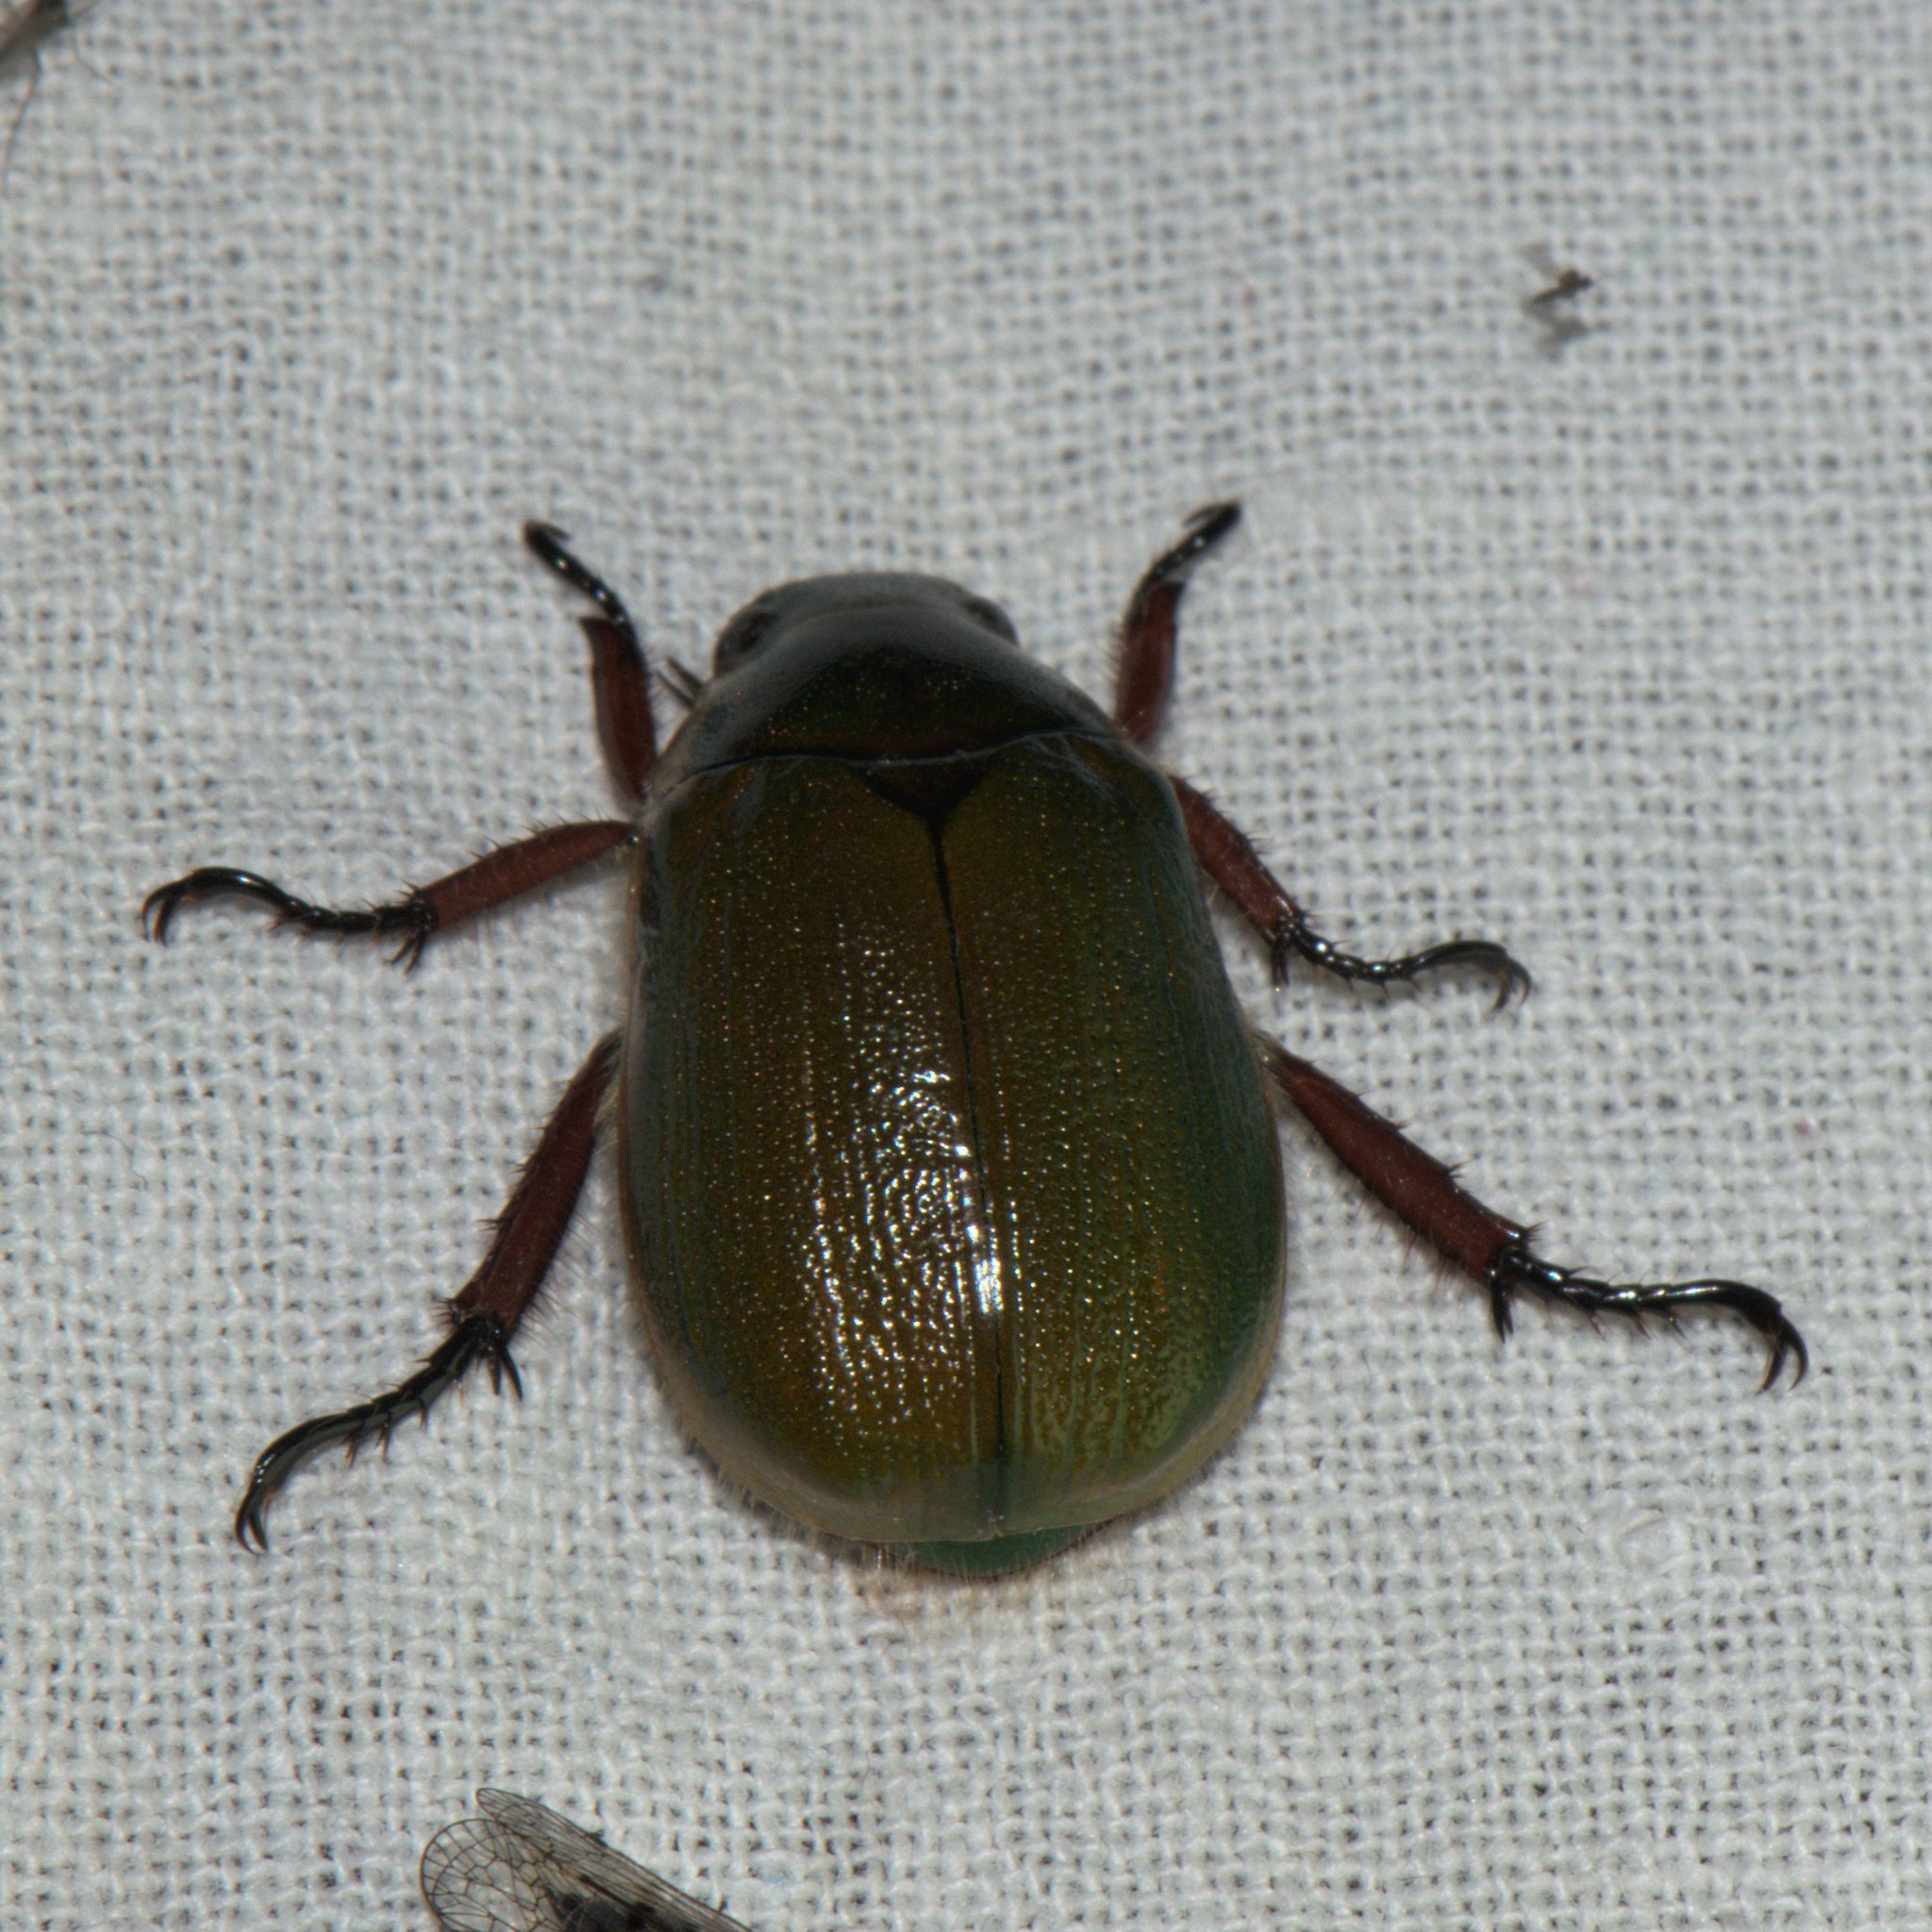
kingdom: Animalia
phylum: Arthropoda
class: Insecta
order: Coleoptera
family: Scarabaeidae
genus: Mimela
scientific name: Mimela passerinii
